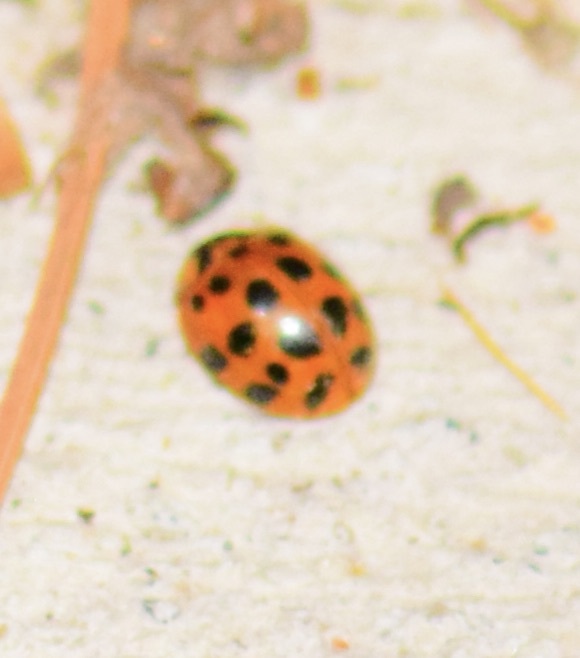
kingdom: Animalia
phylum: Arthropoda
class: Insecta
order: Coleoptera
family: Coccinellidae
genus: Harmonia
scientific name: Harmonia axyridis
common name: Harlequin ladybird
